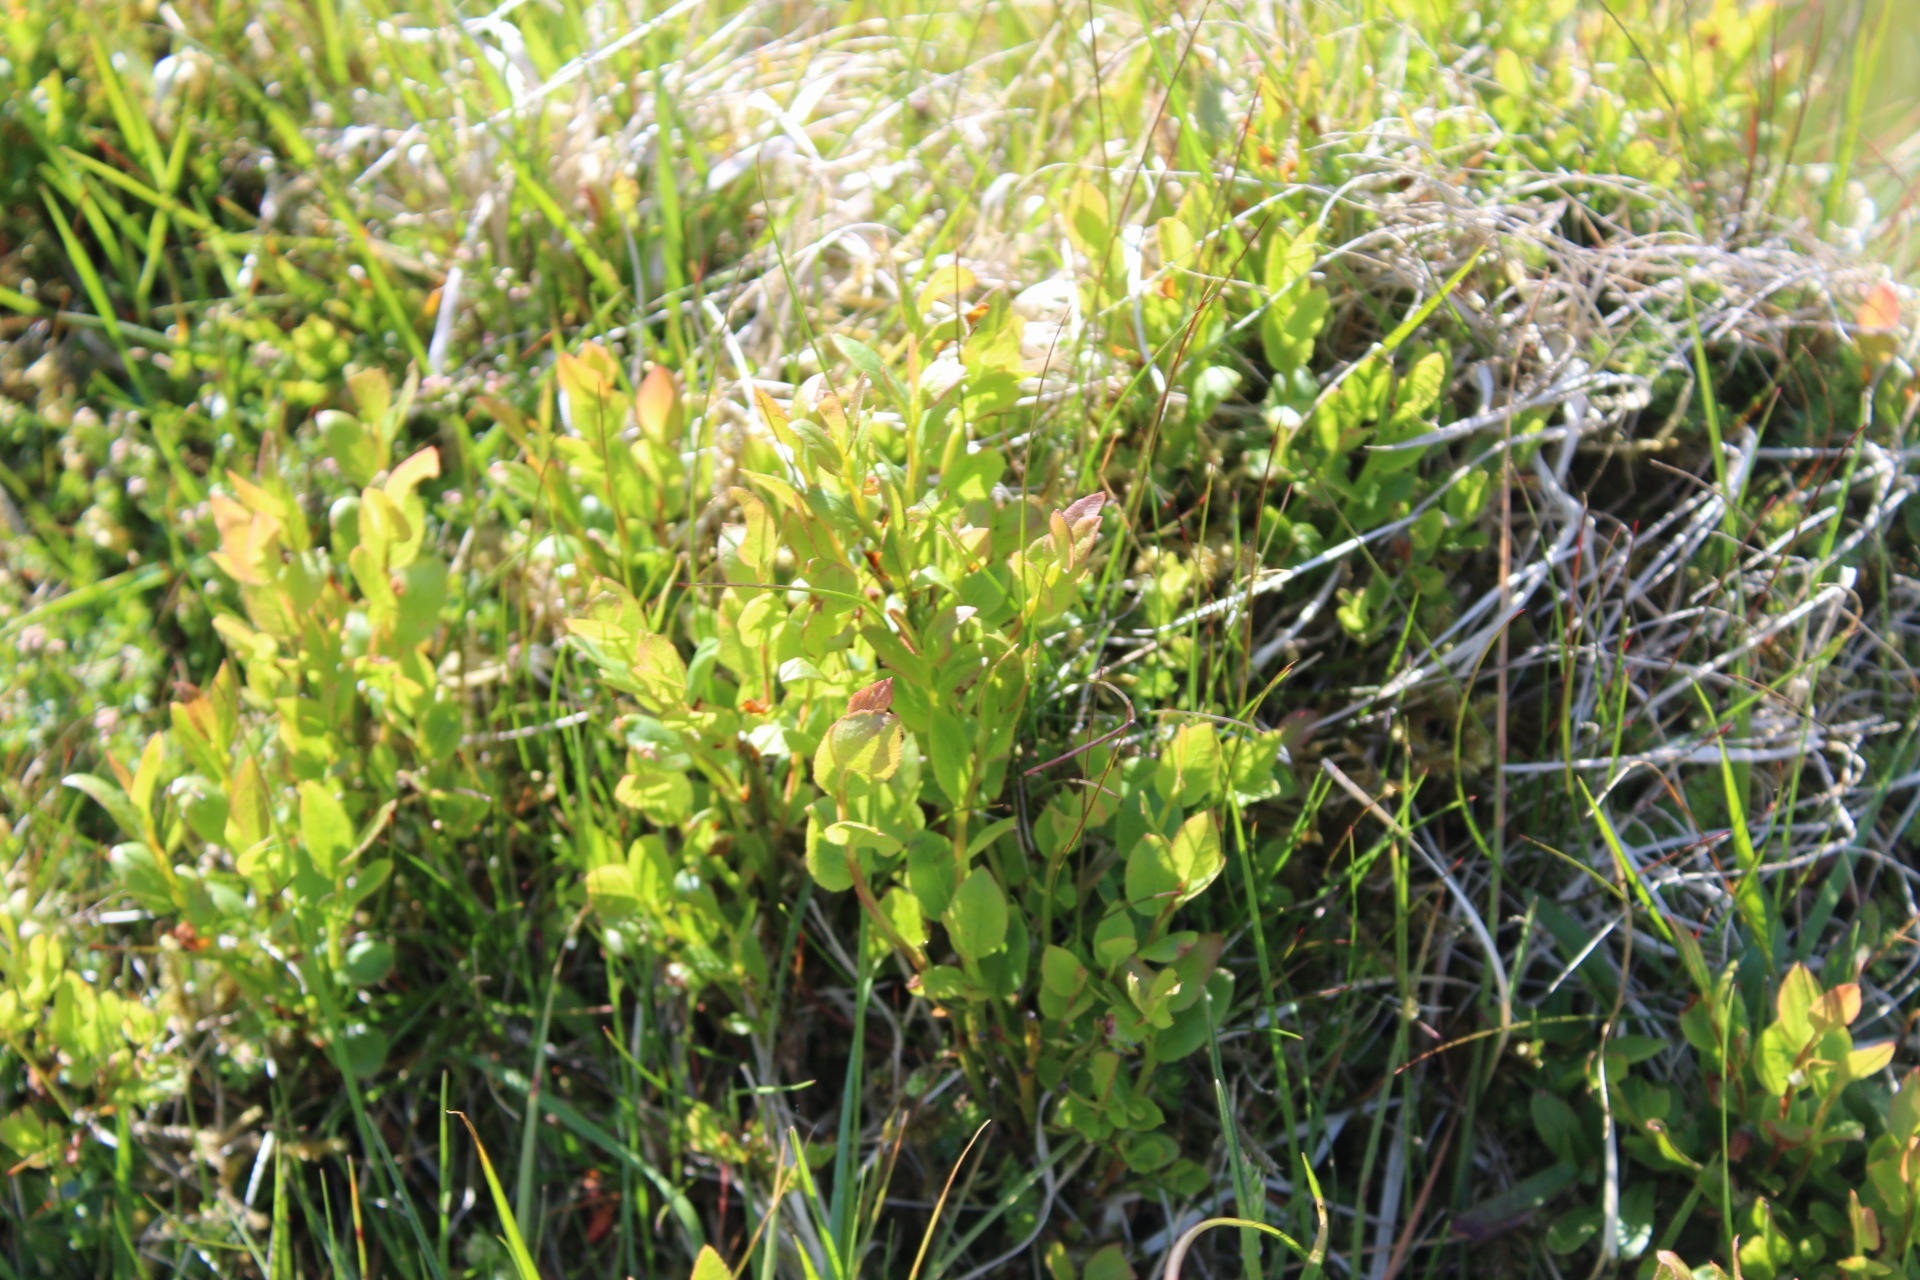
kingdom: Plantae
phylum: Tracheophyta
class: Magnoliopsida
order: Ericales
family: Ericaceae
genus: Vaccinium
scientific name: Vaccinium myrtillus
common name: Bilberry
